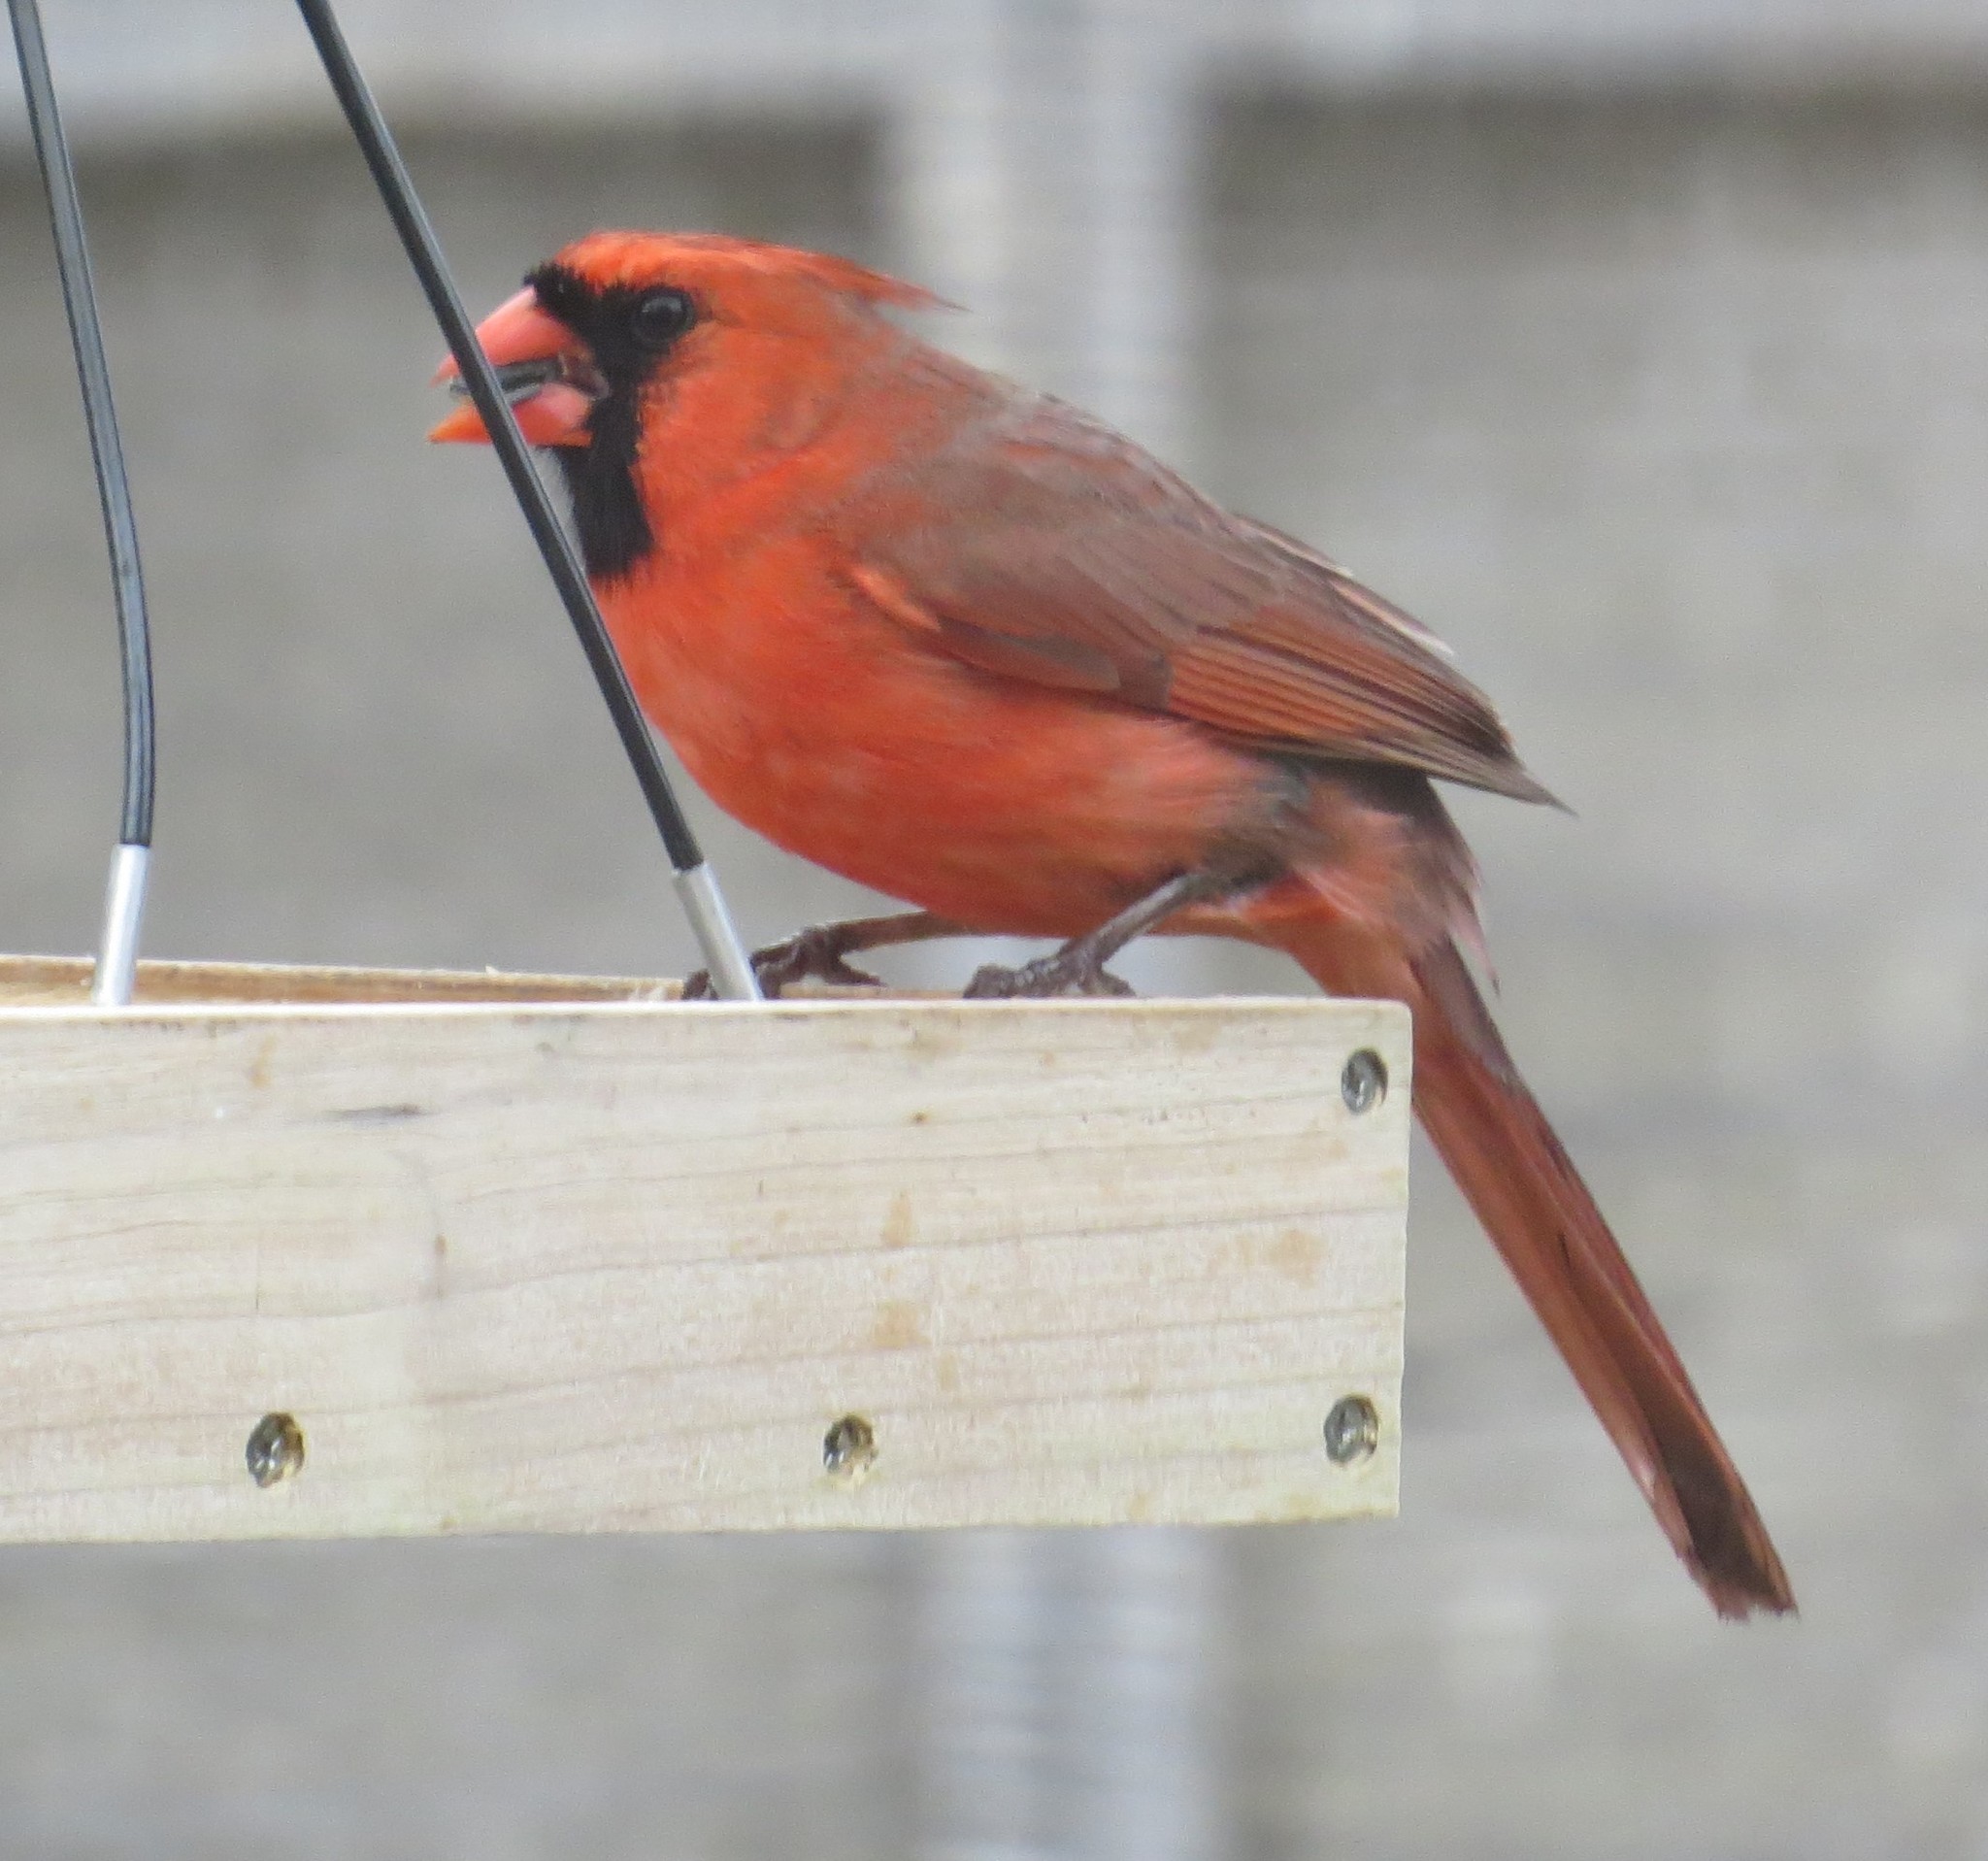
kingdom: Animalia
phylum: Chordata
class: Aves
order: Passeriformes
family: Cardinalidae
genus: Cardinalis
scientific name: Cardinalis cardinalis
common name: Northern cardinal
